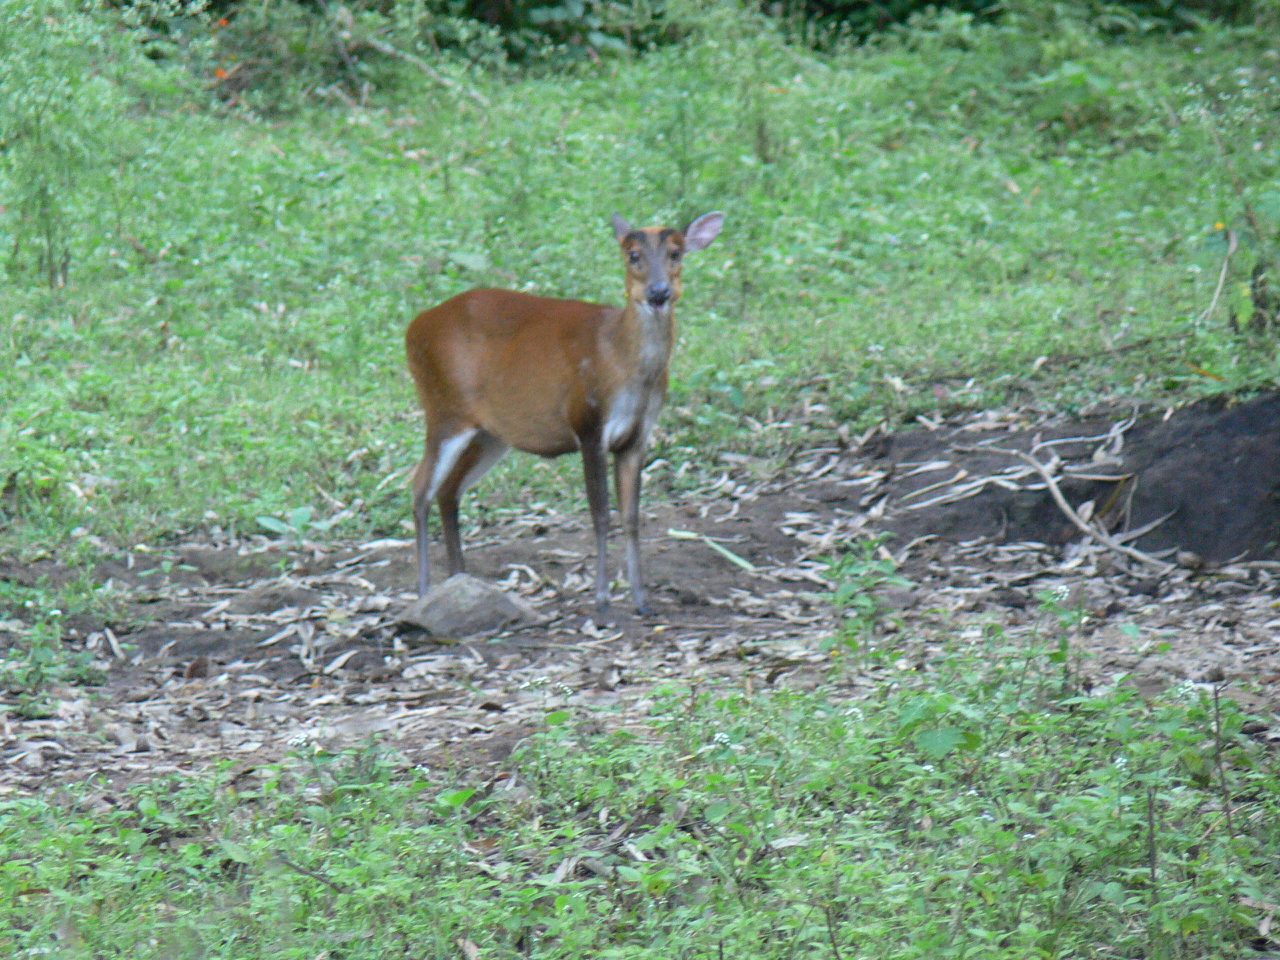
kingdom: Animalia
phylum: Chordata
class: Mammalia
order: Artiodactyla
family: Cervidae
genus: Muntiacus
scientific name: Muntiacus muntjak
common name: Indian muntjac
